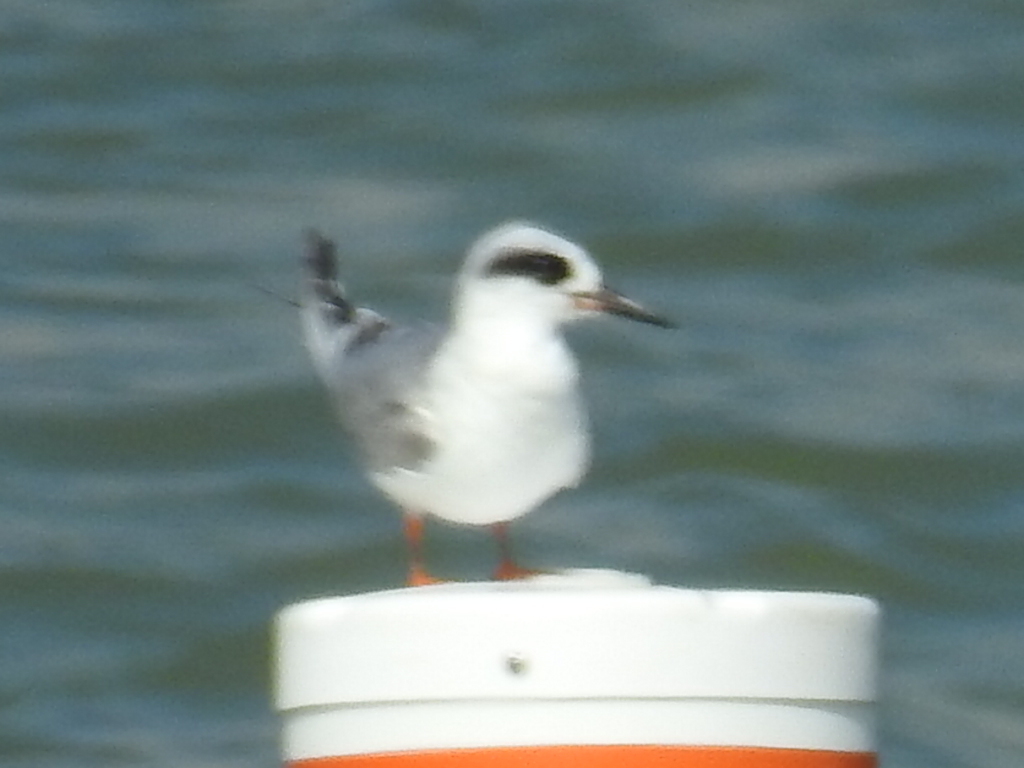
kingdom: Animalia
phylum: Chordata
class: Aves
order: Charadriiformes
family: Laridae
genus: Sterna
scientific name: Sterna forsteri
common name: Forster's tern
